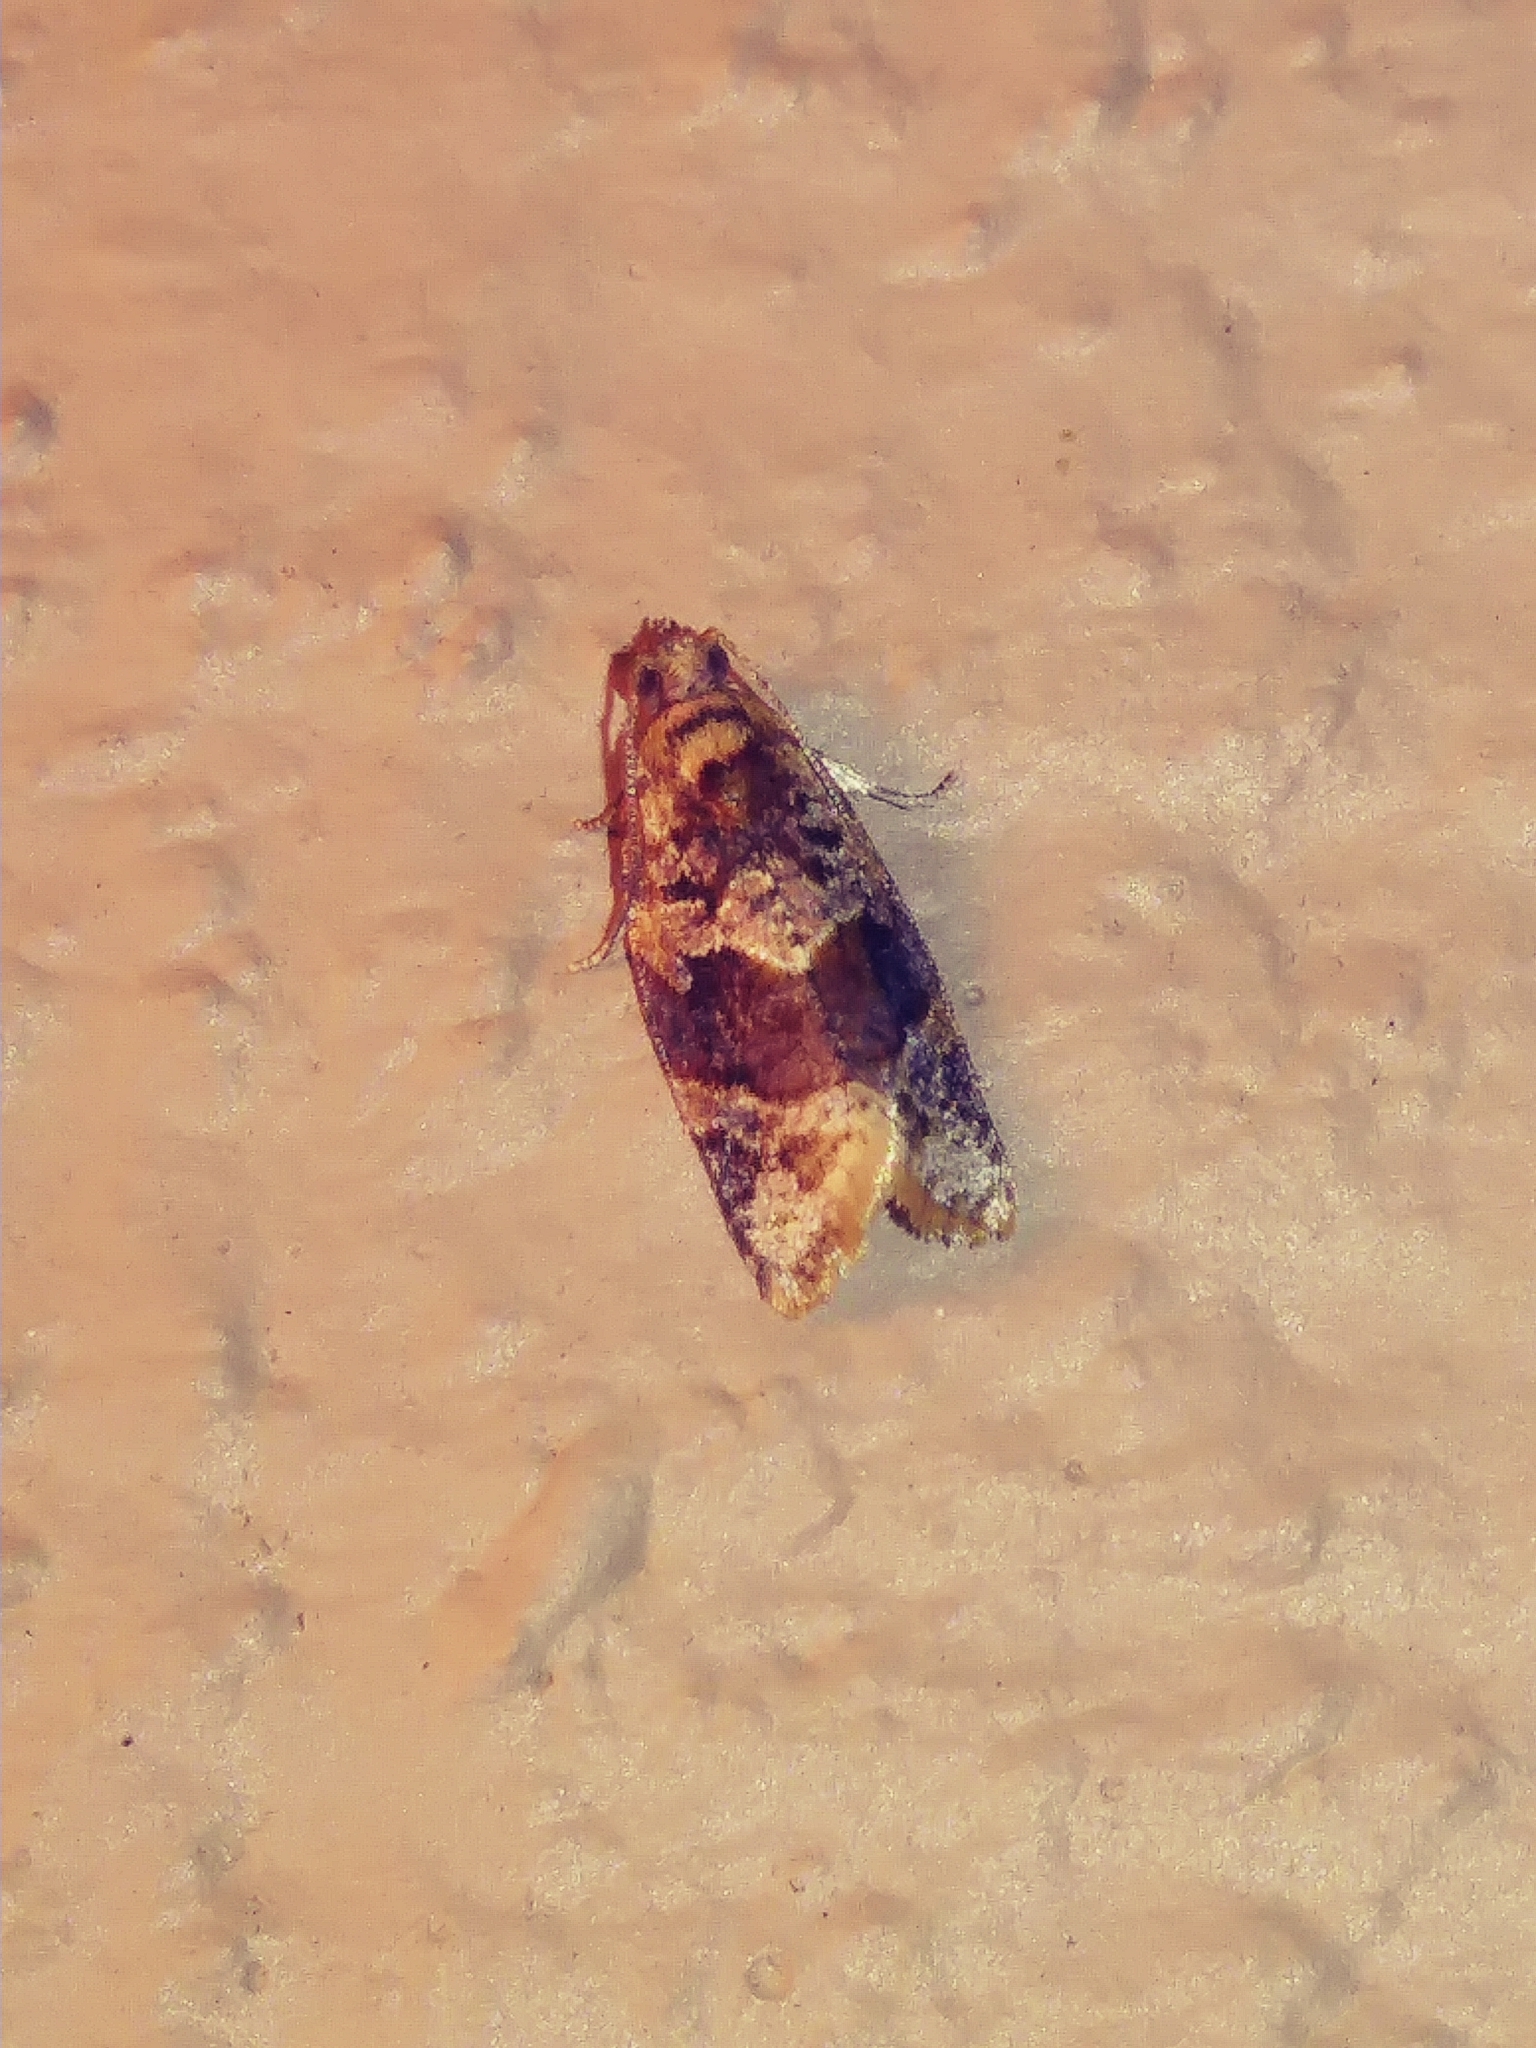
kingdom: Animalia
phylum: Arthropoda
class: Insecta
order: Lepidoptera
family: Tortricidae
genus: Argyrotaenia
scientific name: Argyrotaenia velutinana
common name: Red-banded leafroller moth
